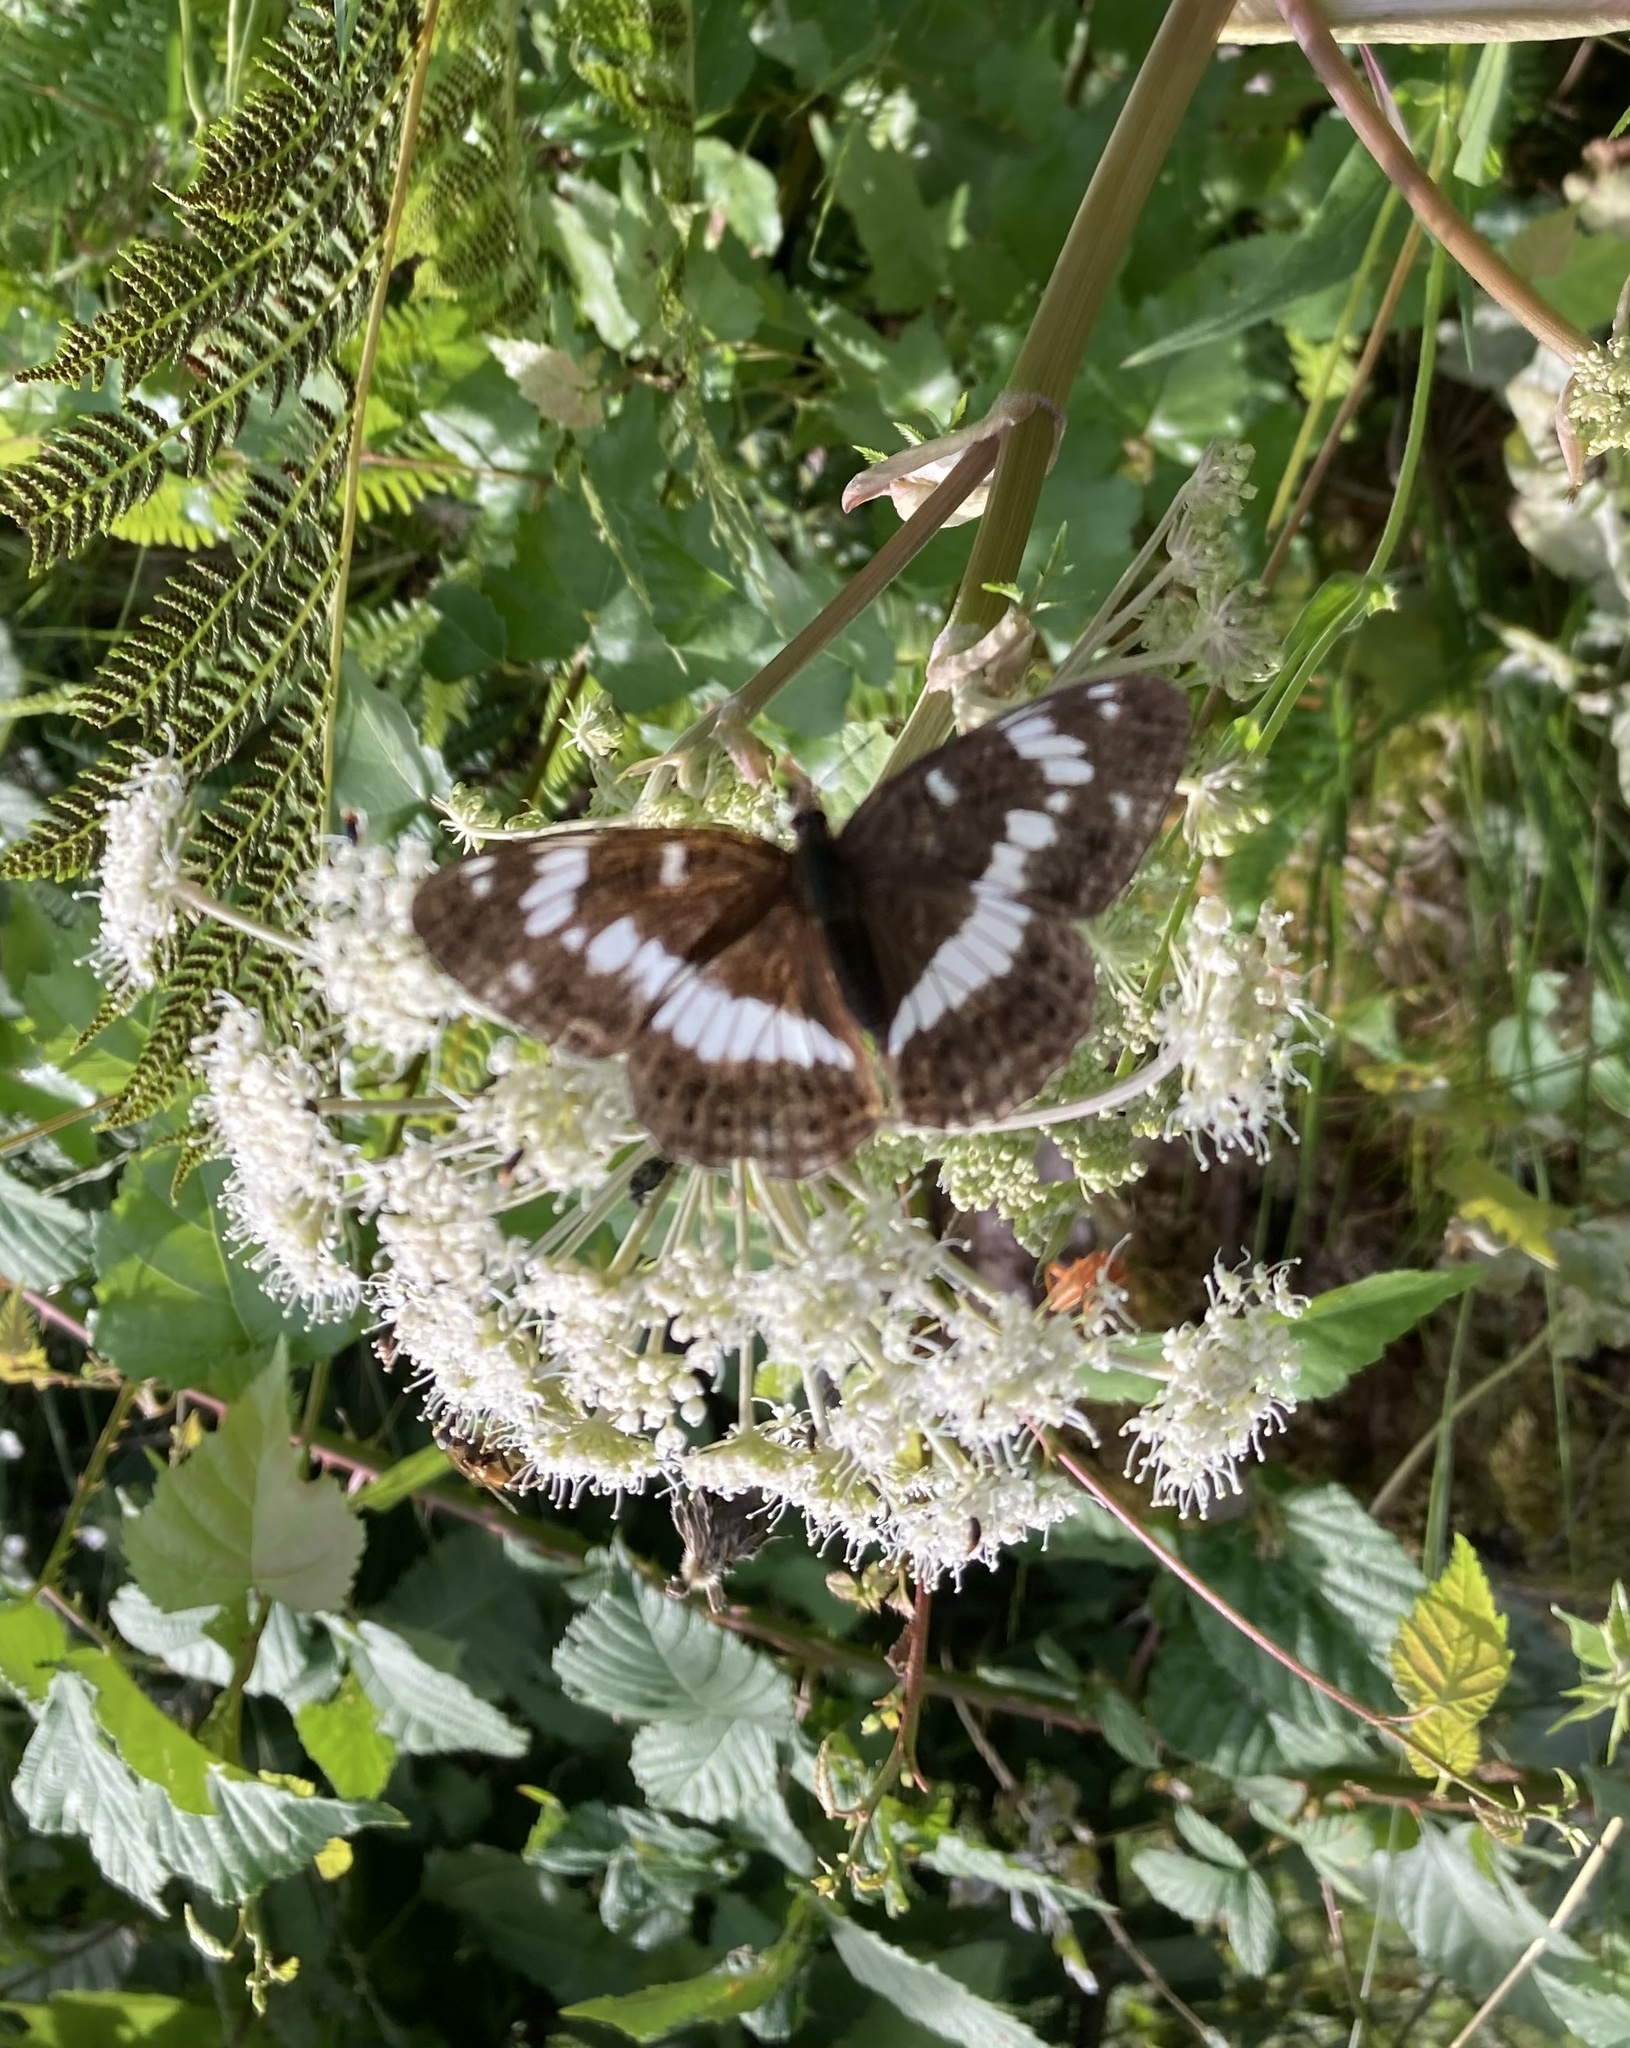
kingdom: Animalia
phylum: Arthropoda
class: Insecta
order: Lepidoptera
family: Nymphalidae
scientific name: Nymphalidae
